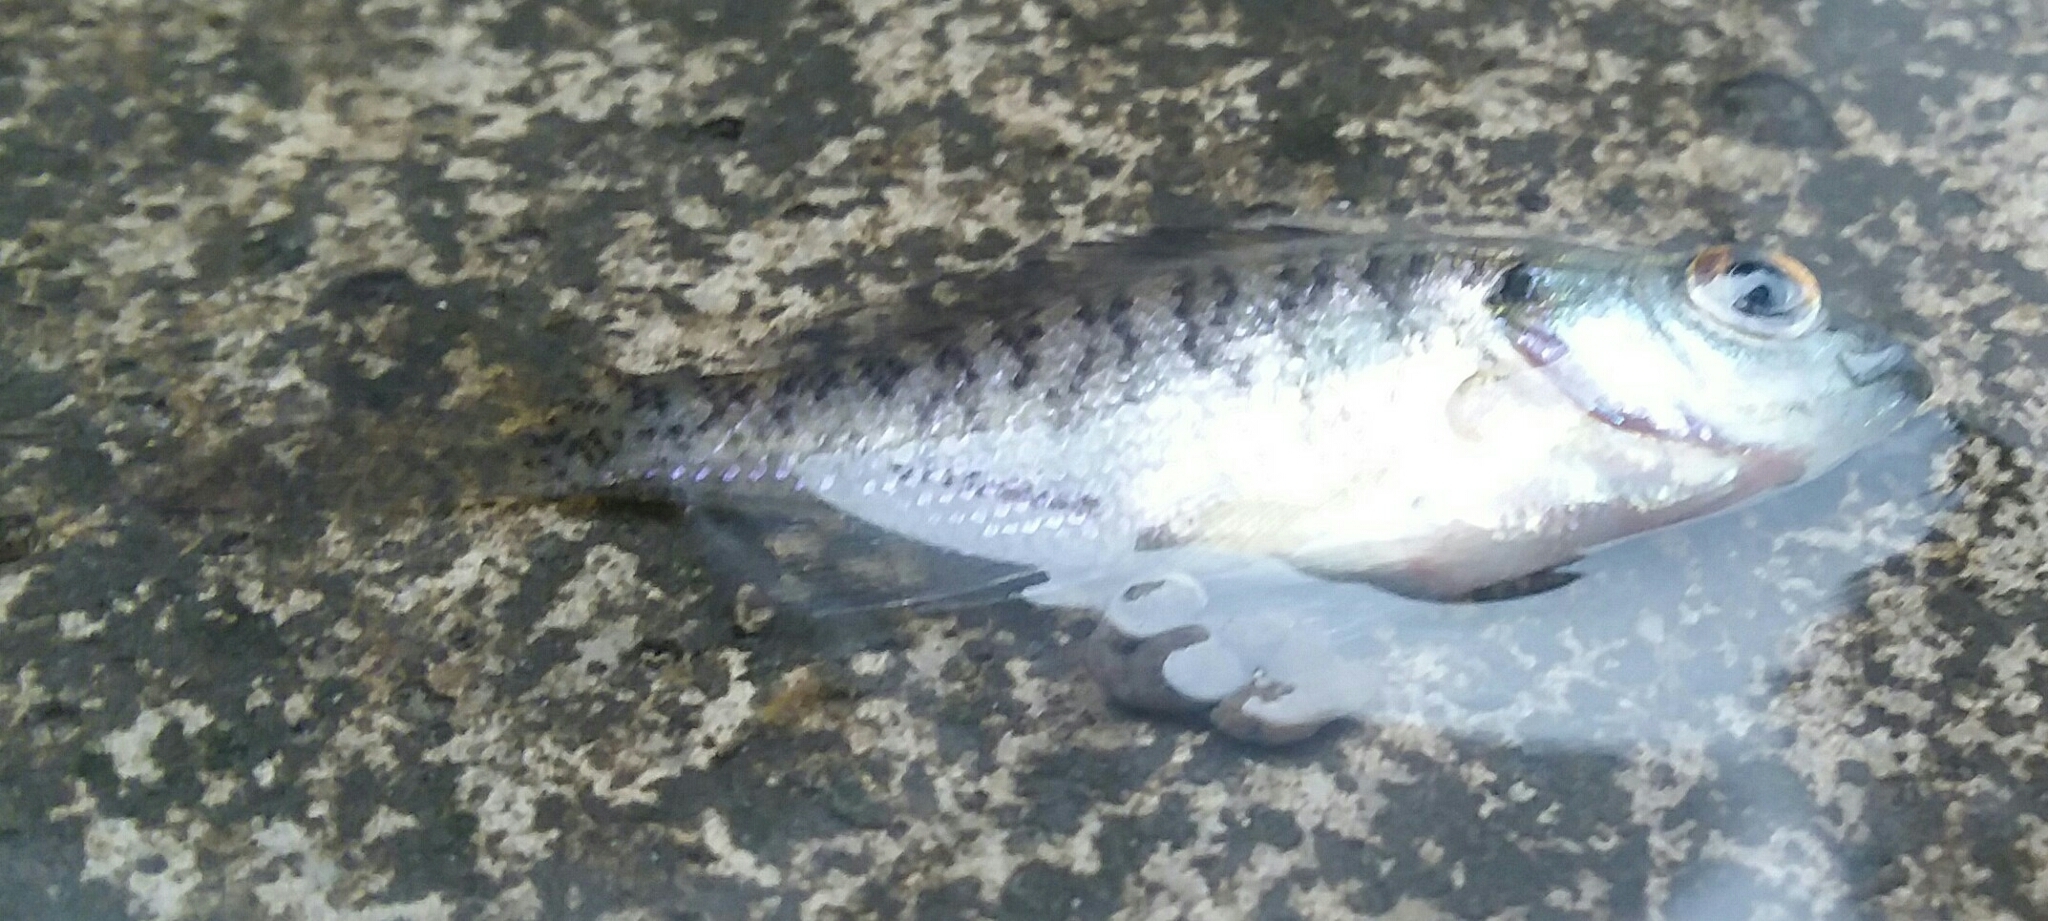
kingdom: Animalia
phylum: Chordata
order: Perciformes
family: Centrarchidae
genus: Lepomis
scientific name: Lepomis macrochirus
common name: Bluegill
